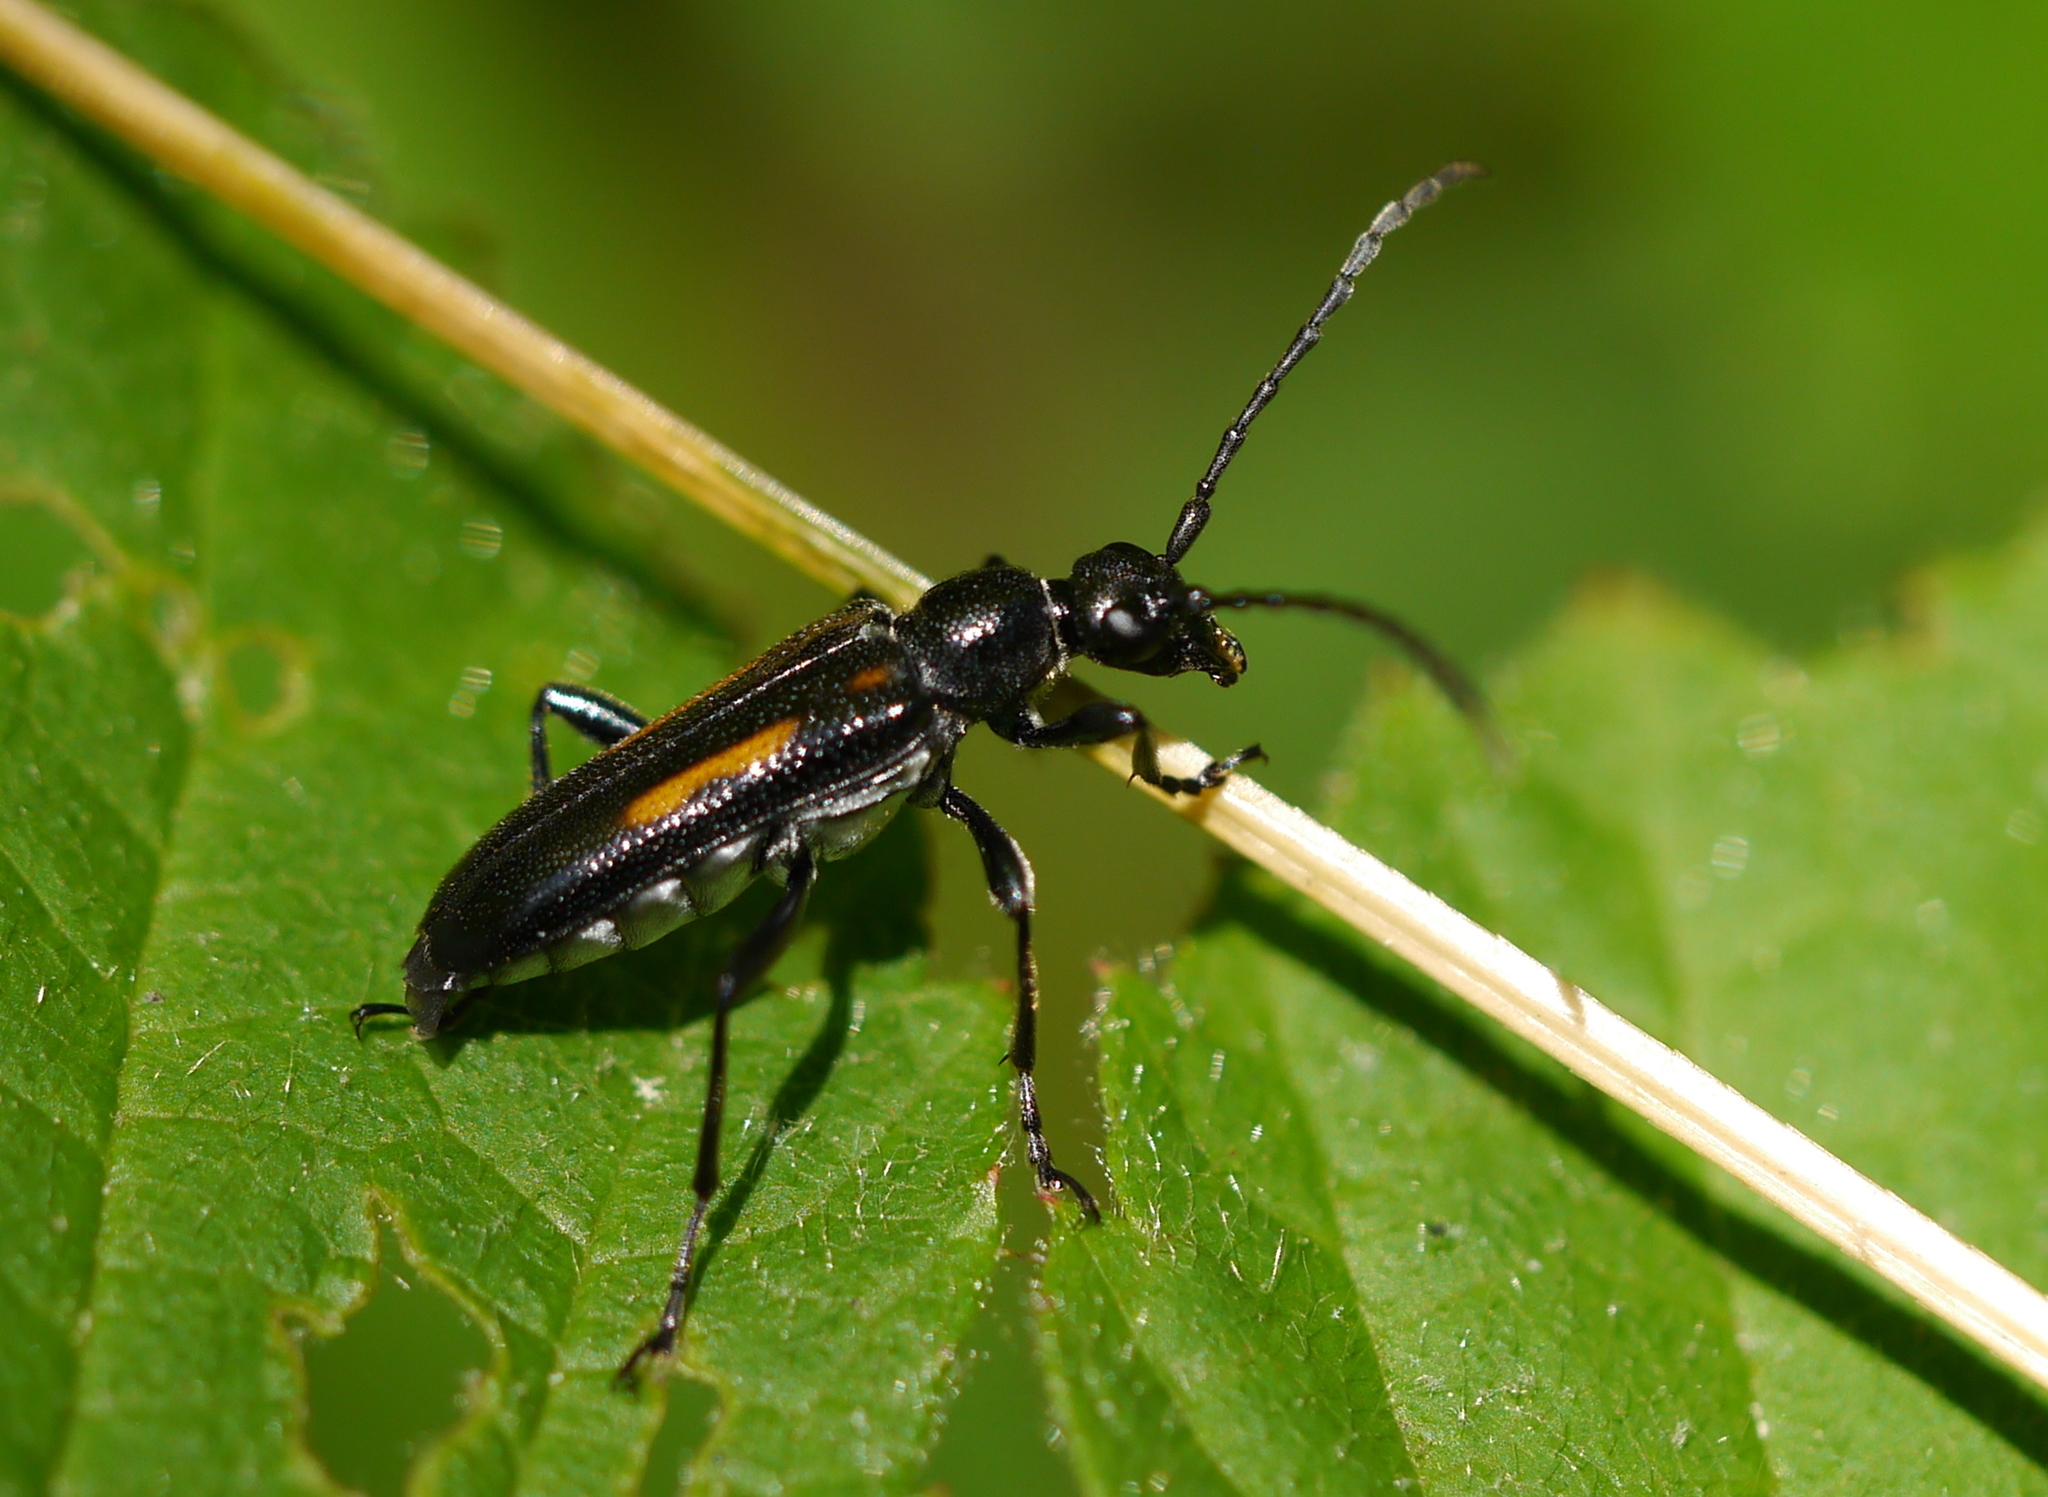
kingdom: Animalia
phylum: Arthropoda
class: Insecta
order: Coleoptera
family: Cerambycidae
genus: Strangalepta
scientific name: Strangalepta abbreviata
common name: Strangalepta flower longhorn beetle
